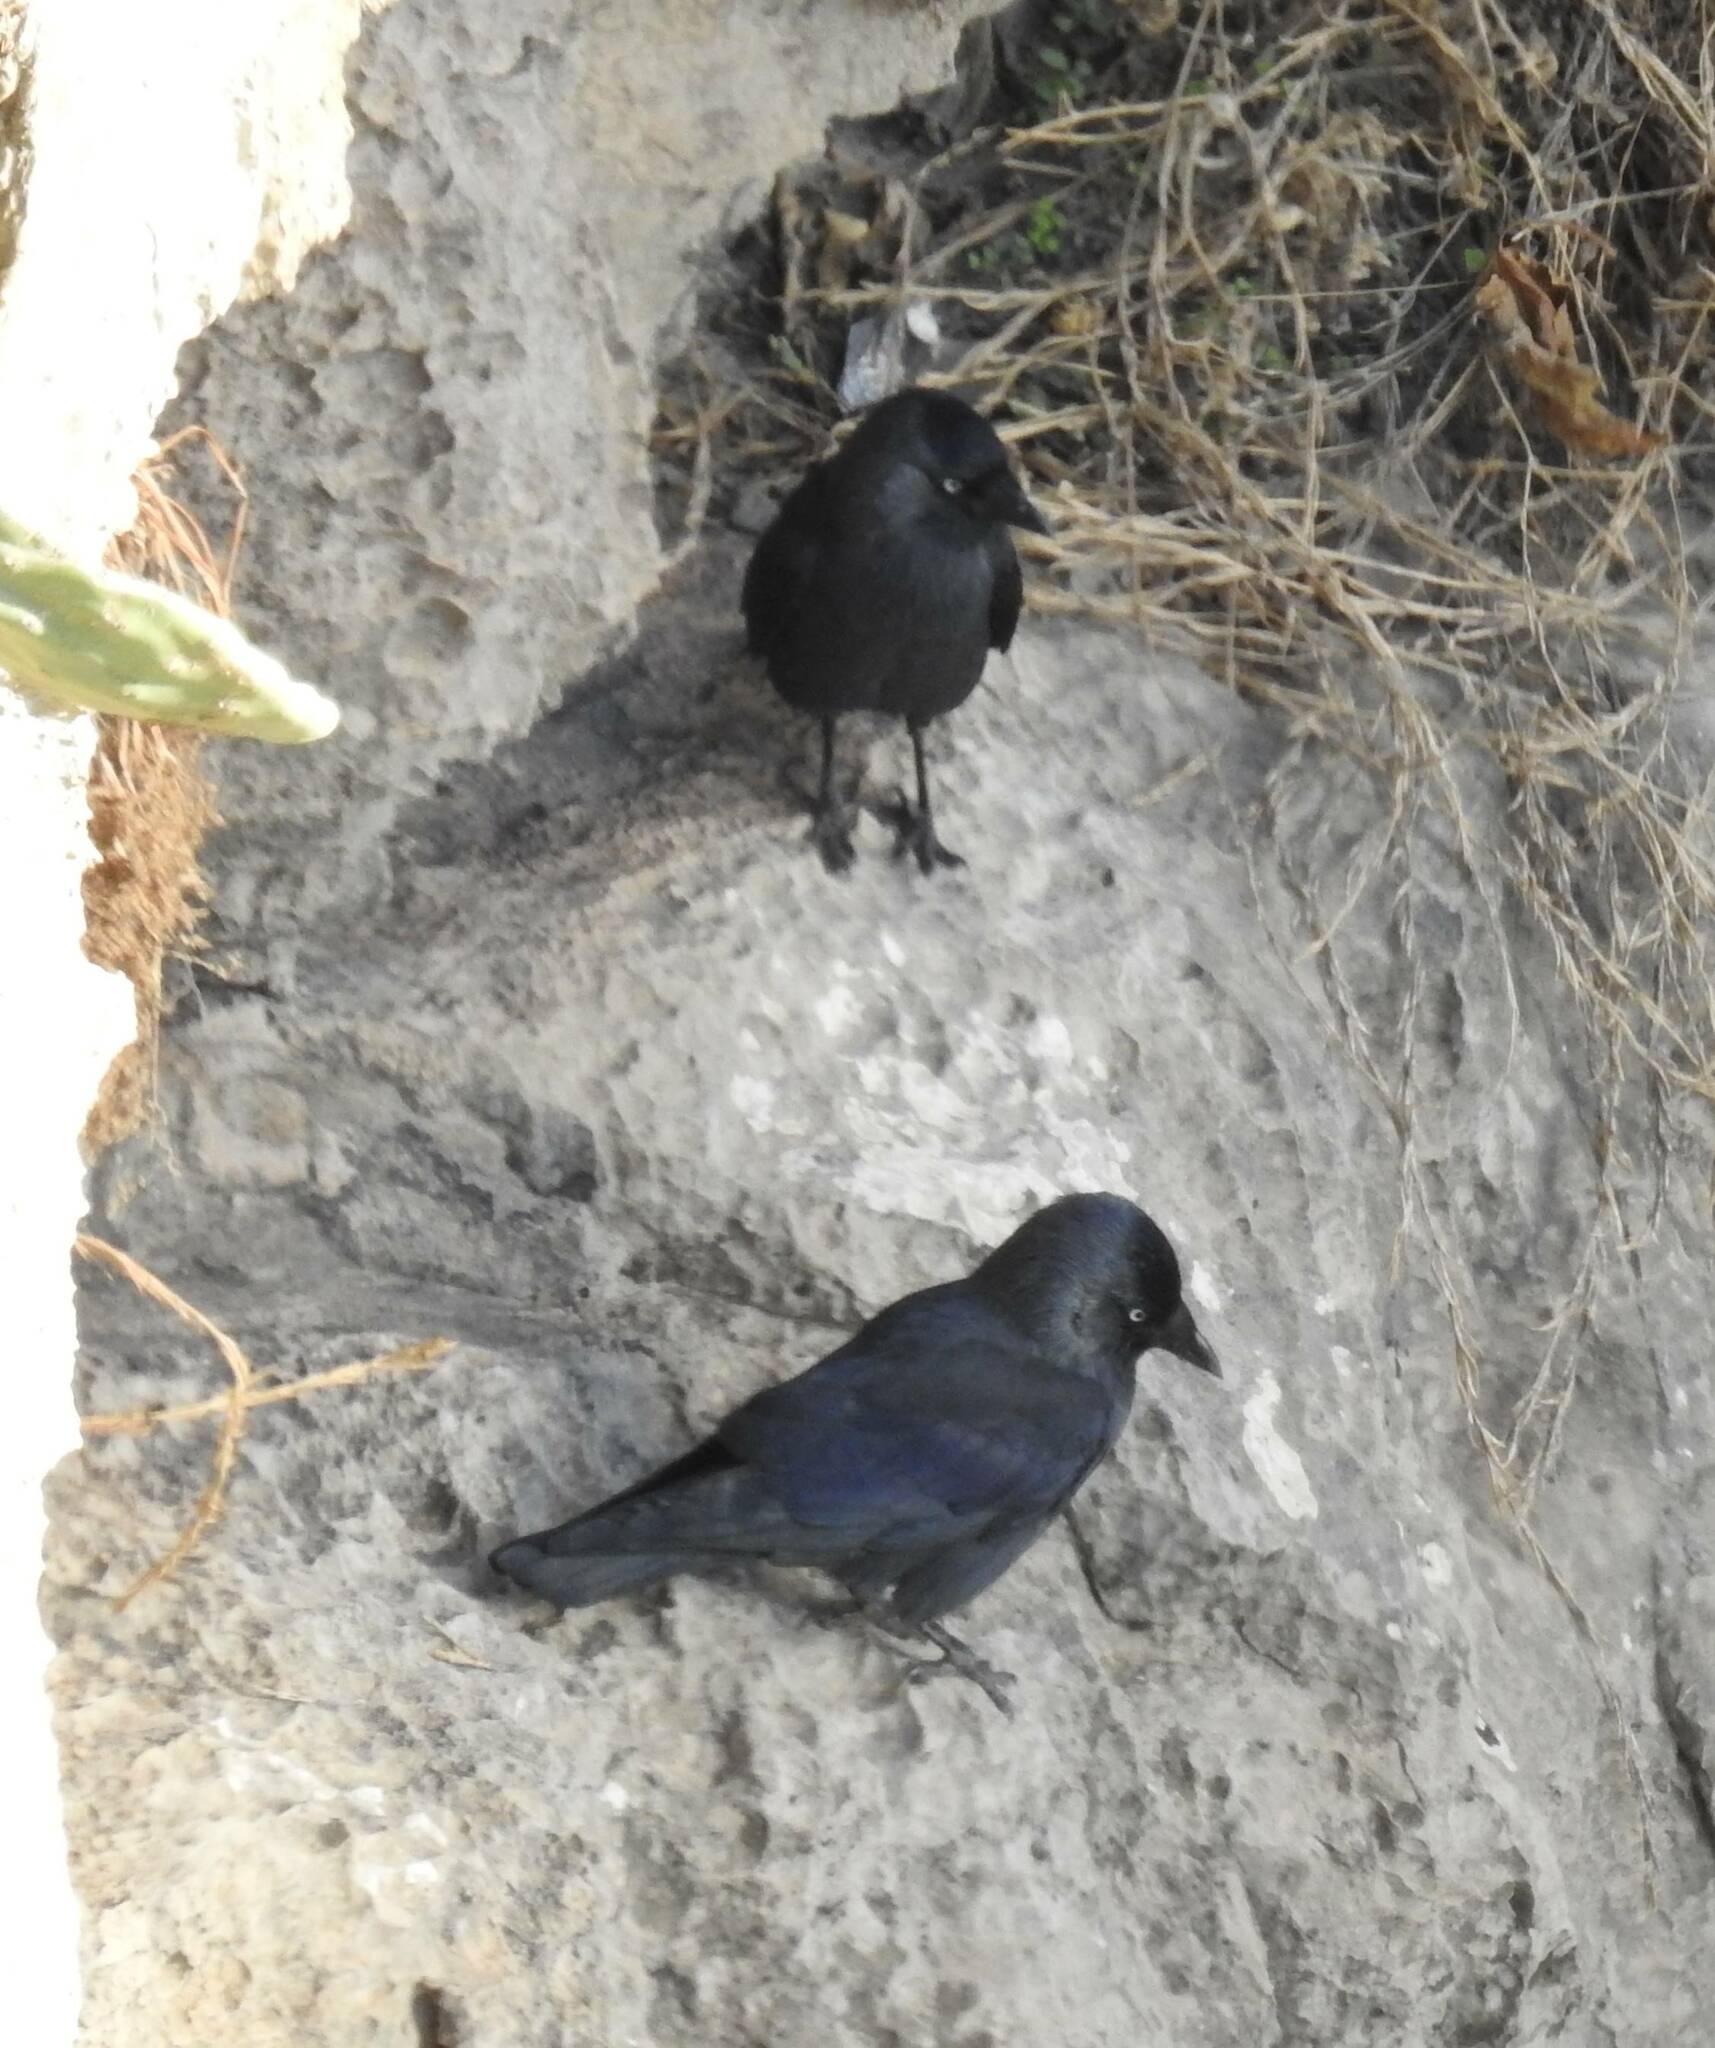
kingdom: Animalia
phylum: Chordata
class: Aves
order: Passeriformes
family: Corvidae
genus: Coloeus
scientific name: Coloeus monedula
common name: Western jackdaw
